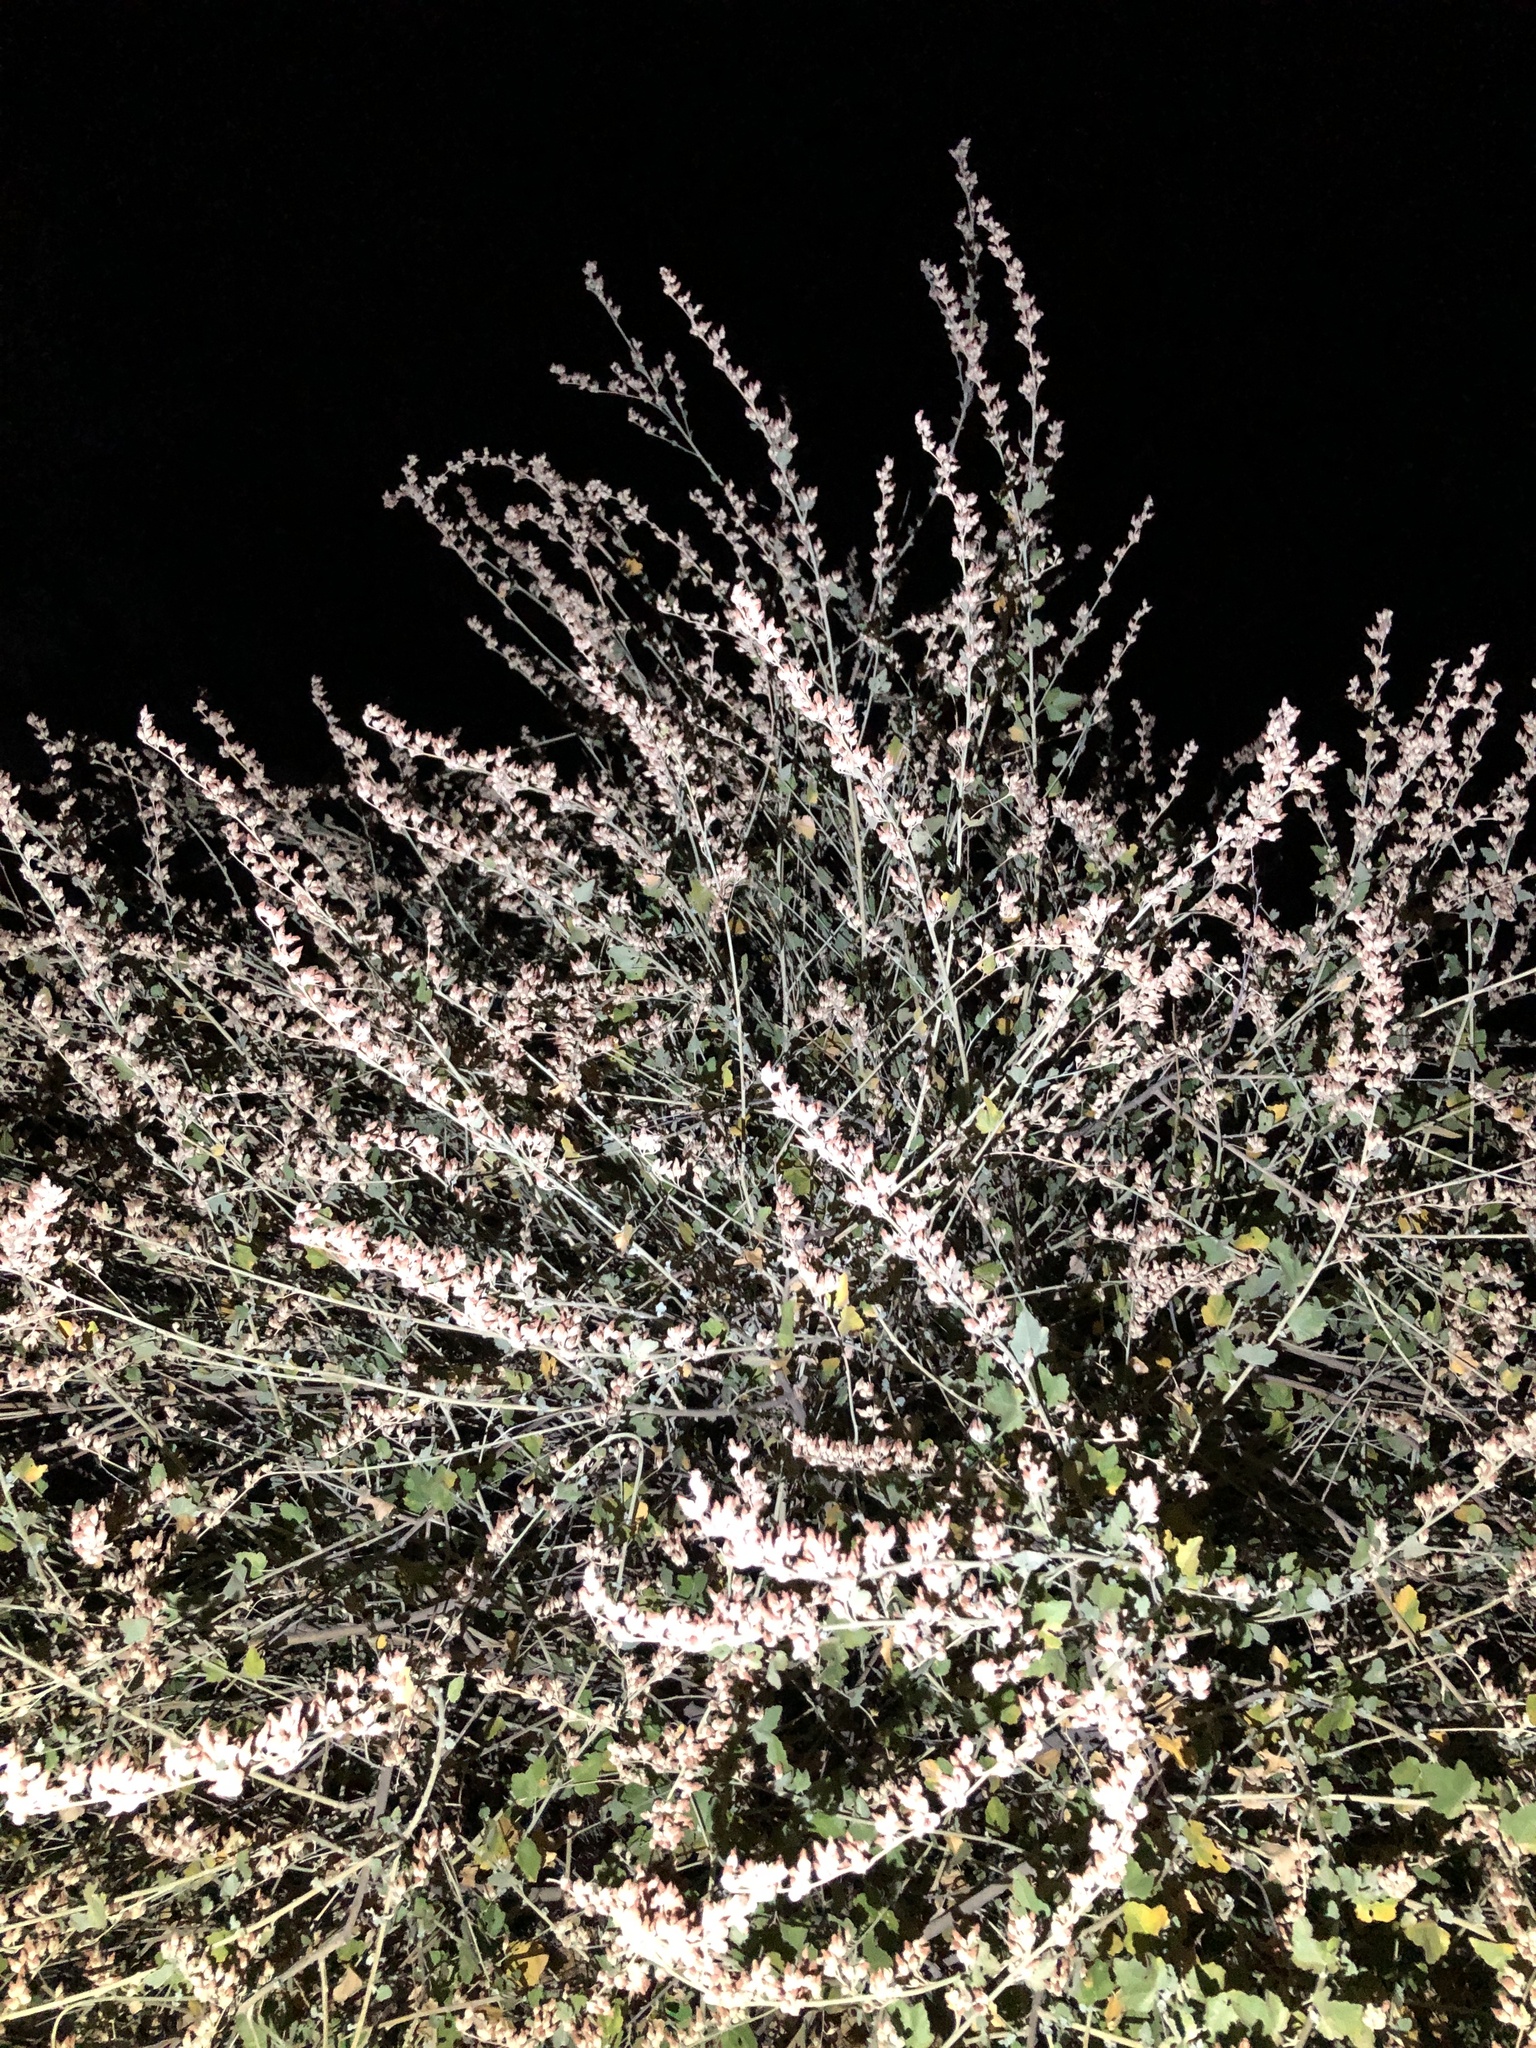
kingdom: Plantae
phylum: Tracheophyta
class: Magnoliopsida
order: Malvales
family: Malvaceae
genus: Malacothamnus
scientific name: Malacothamnus fasciculatus
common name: Sant cruz island bush-mallow
